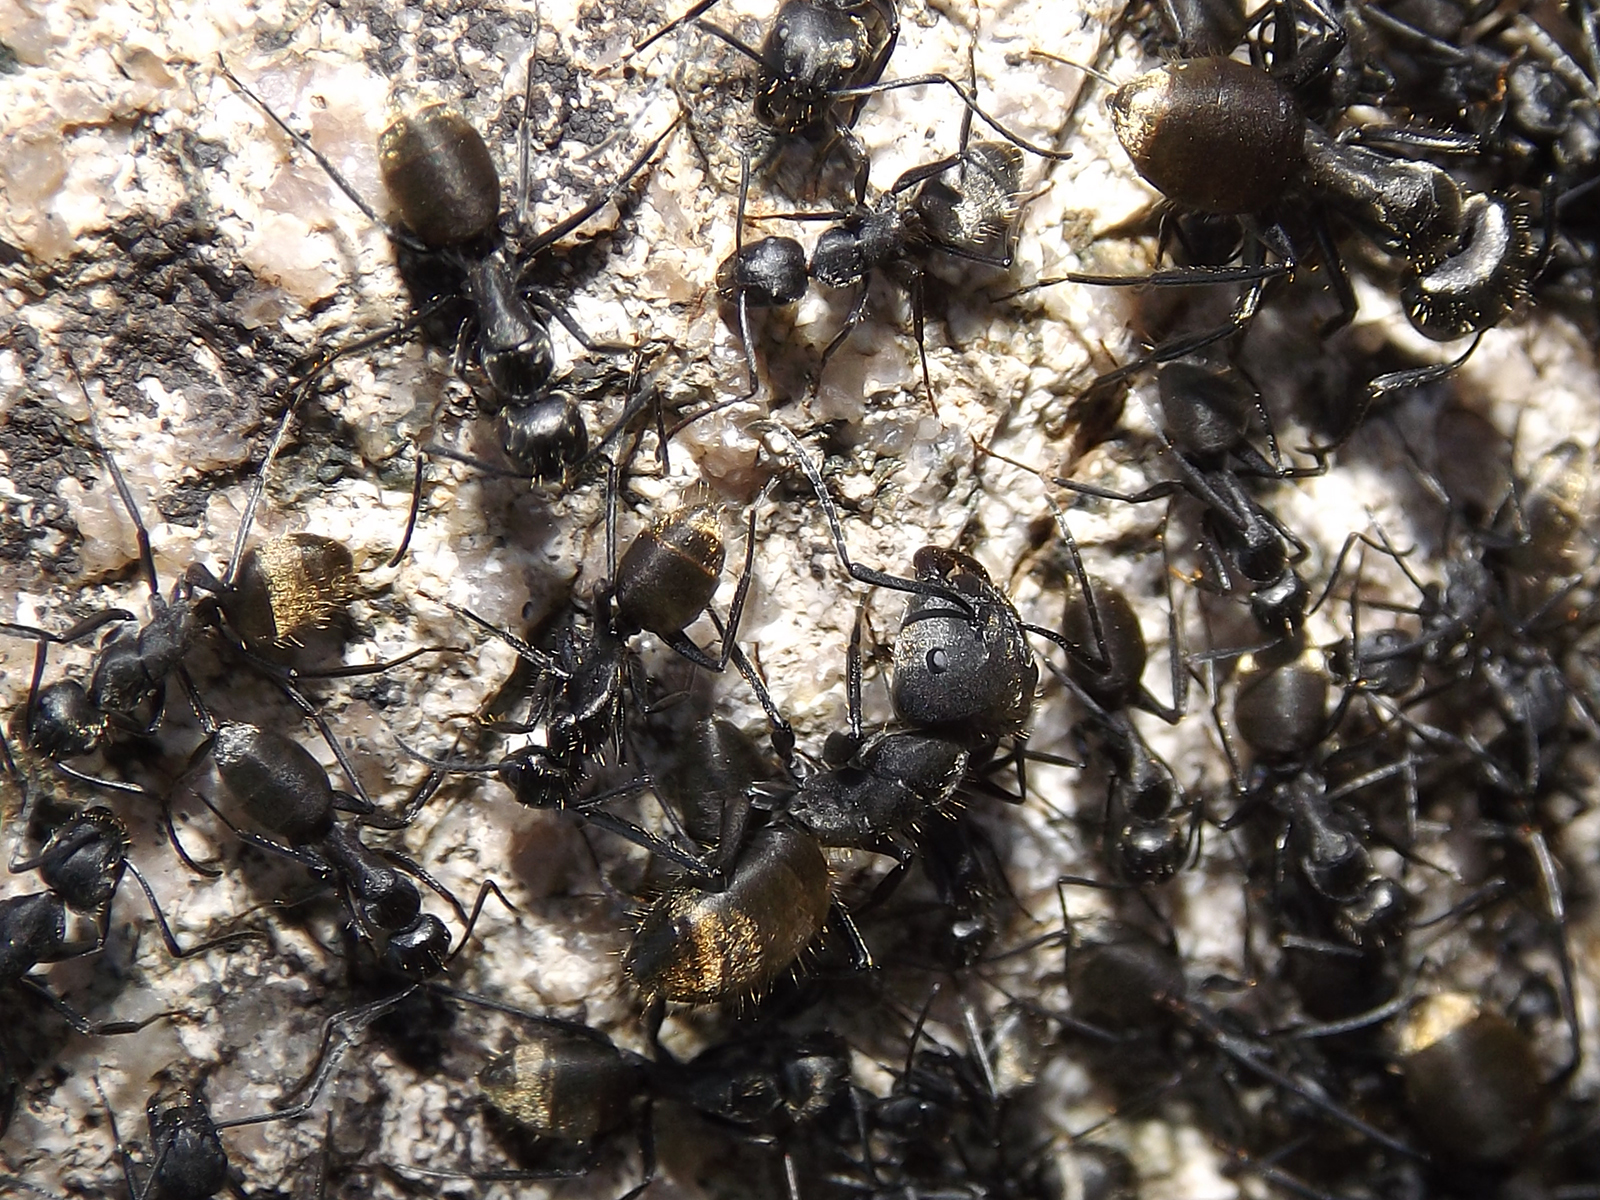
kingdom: Animalia
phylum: Arthropoda
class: Insecta
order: Hymenoptera
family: Formicidae
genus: Camponotus
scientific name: Camponotus chilensis
